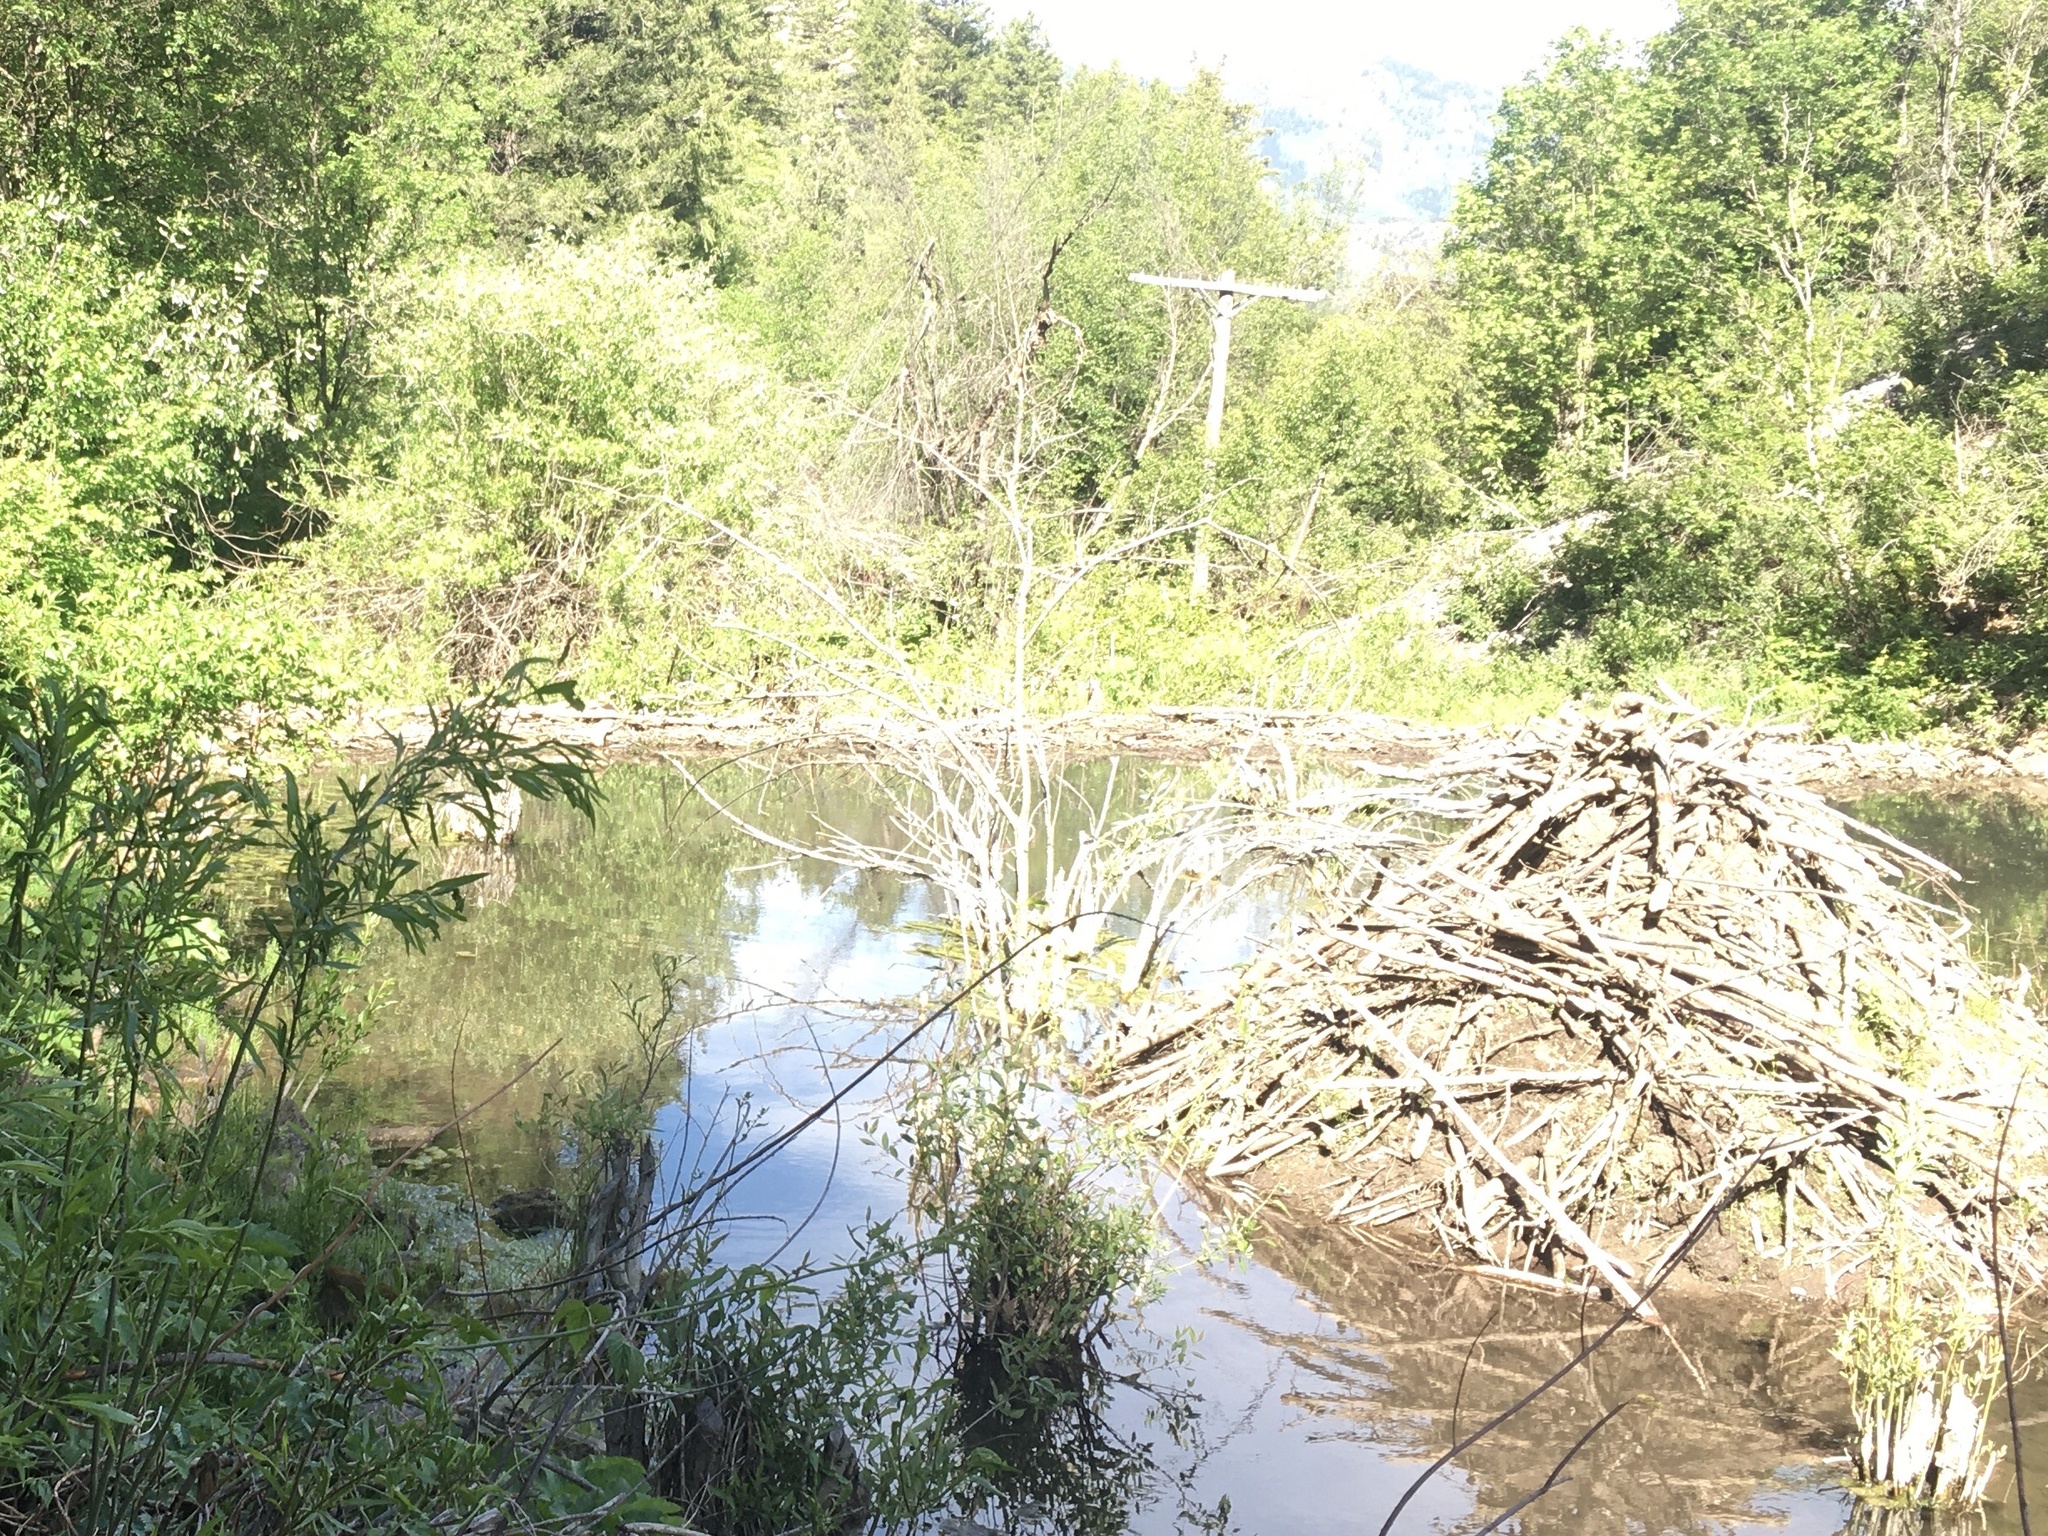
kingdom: Animalia
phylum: Chordata
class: Mammalia
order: Rodentia
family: Castoridae
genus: Castor
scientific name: Castor canadensis
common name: American beaver
